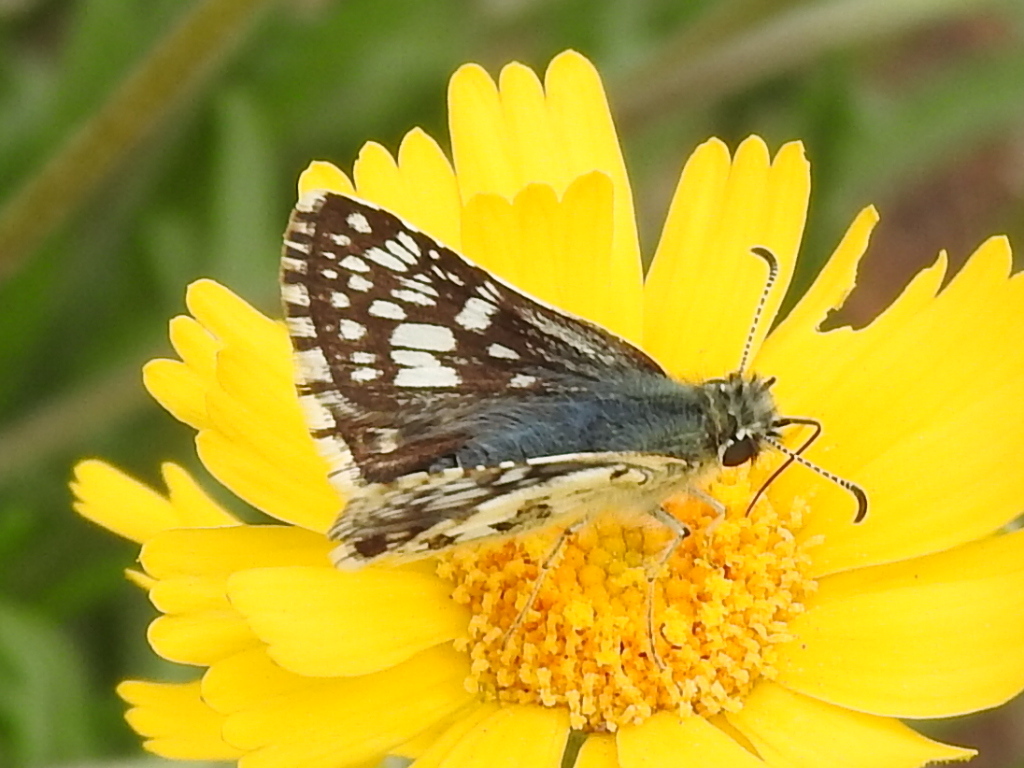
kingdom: Animalia
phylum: Arthropoda
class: Insecta
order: Lepidoptera
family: Hesperiidae
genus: Burnsius
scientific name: Burnsius
